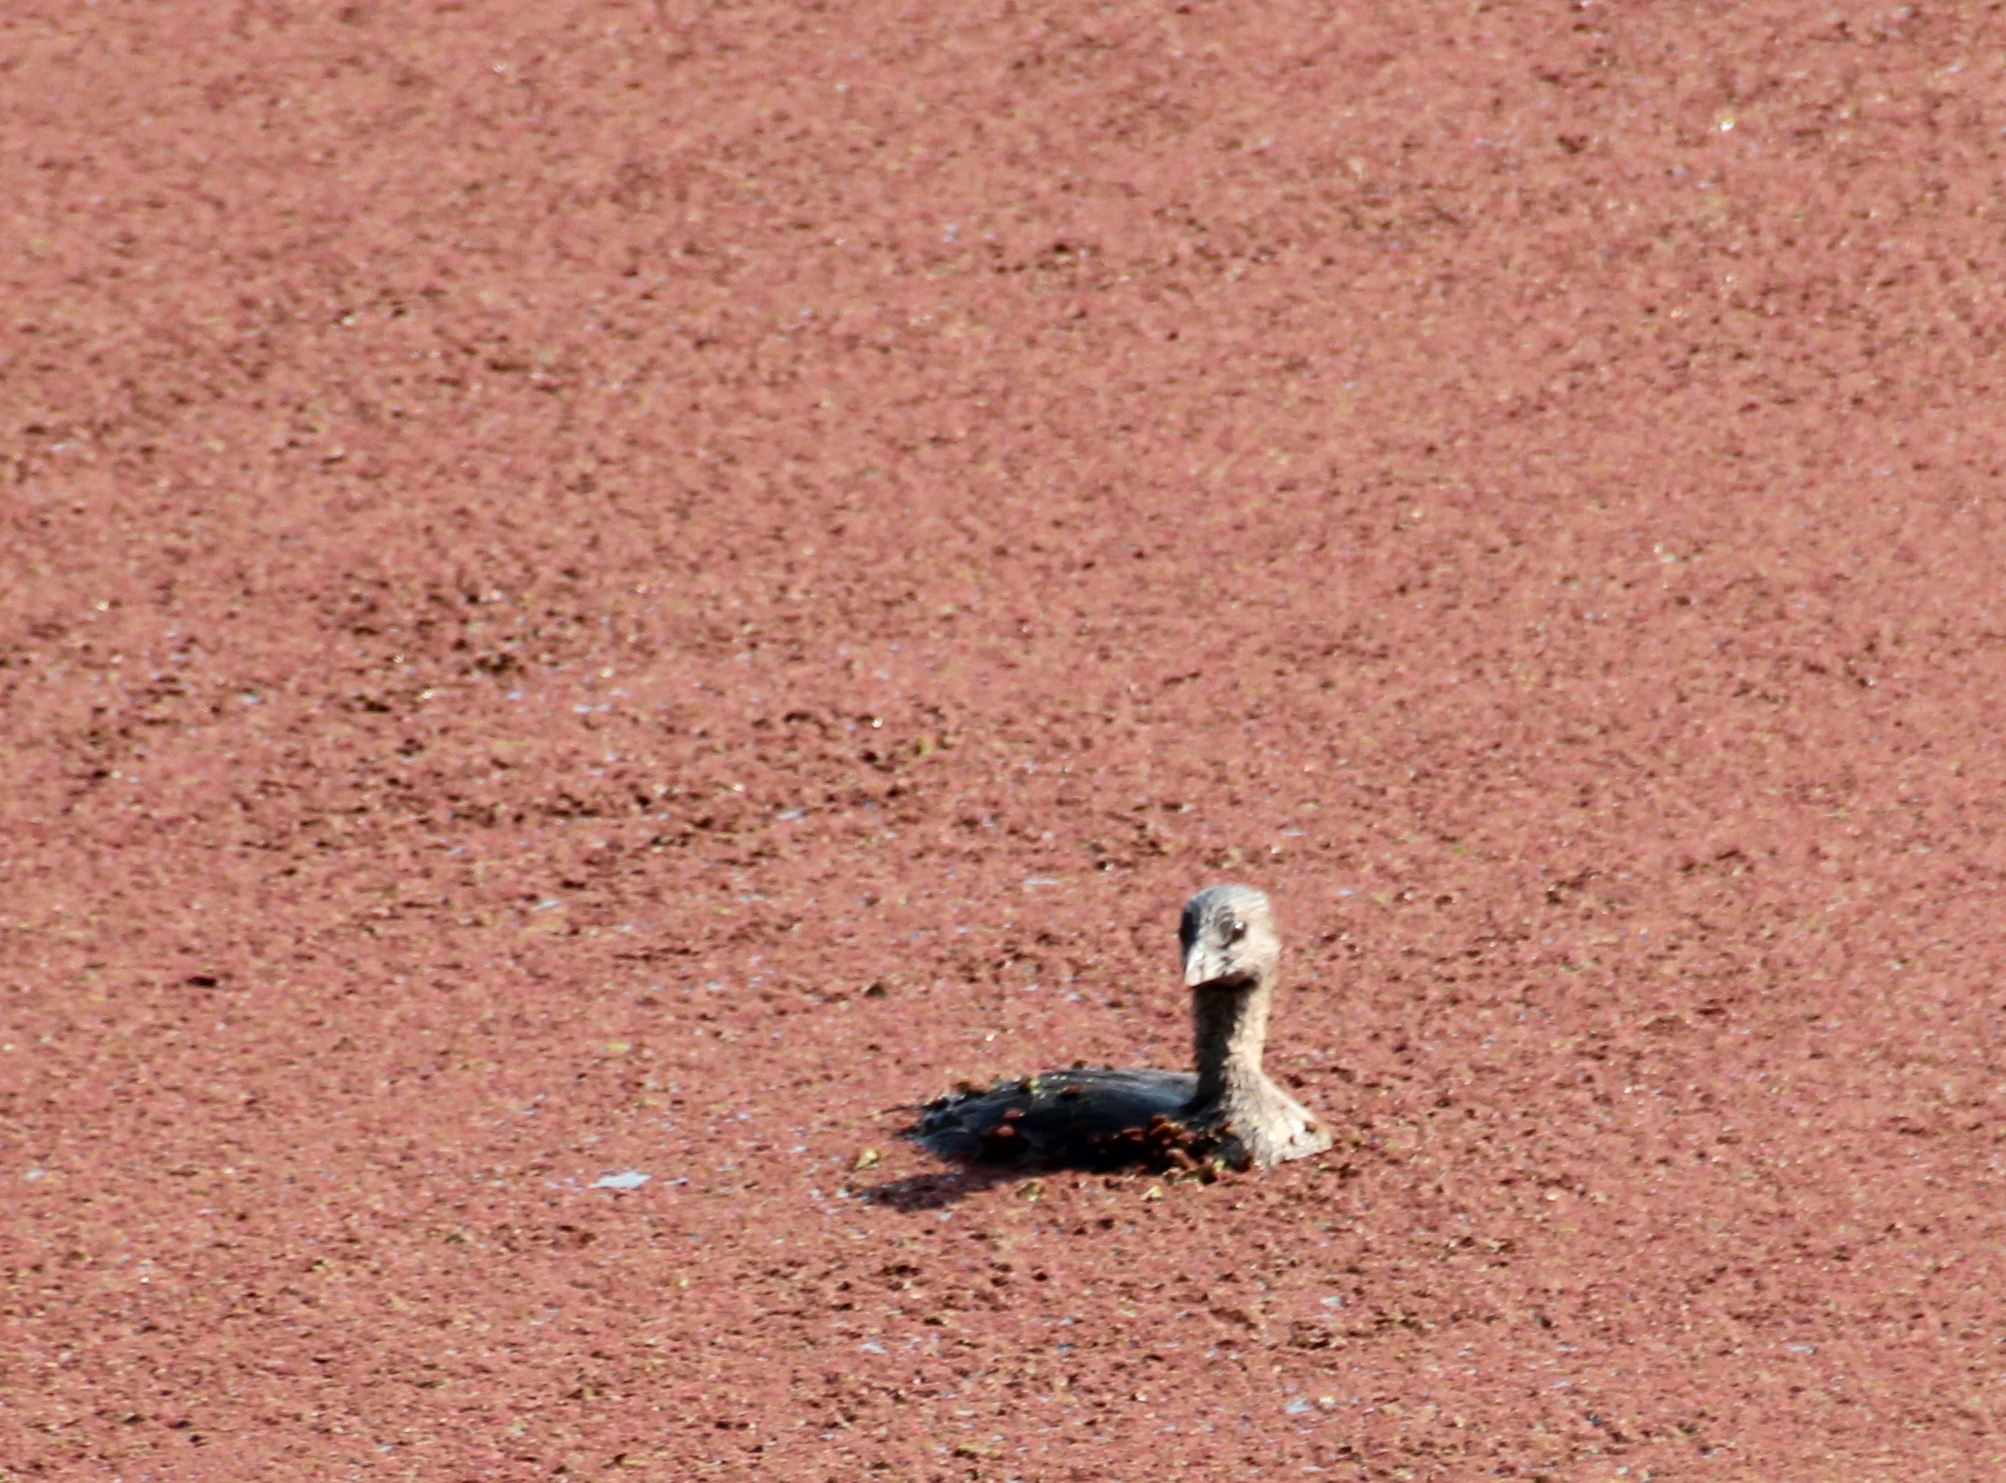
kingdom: Animalia
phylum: Chordata
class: Aves
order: Podicipediformes
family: Podicipedidae
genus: Podilymbus
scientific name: Podilymbus podiceps
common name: Pied-billed grebe
